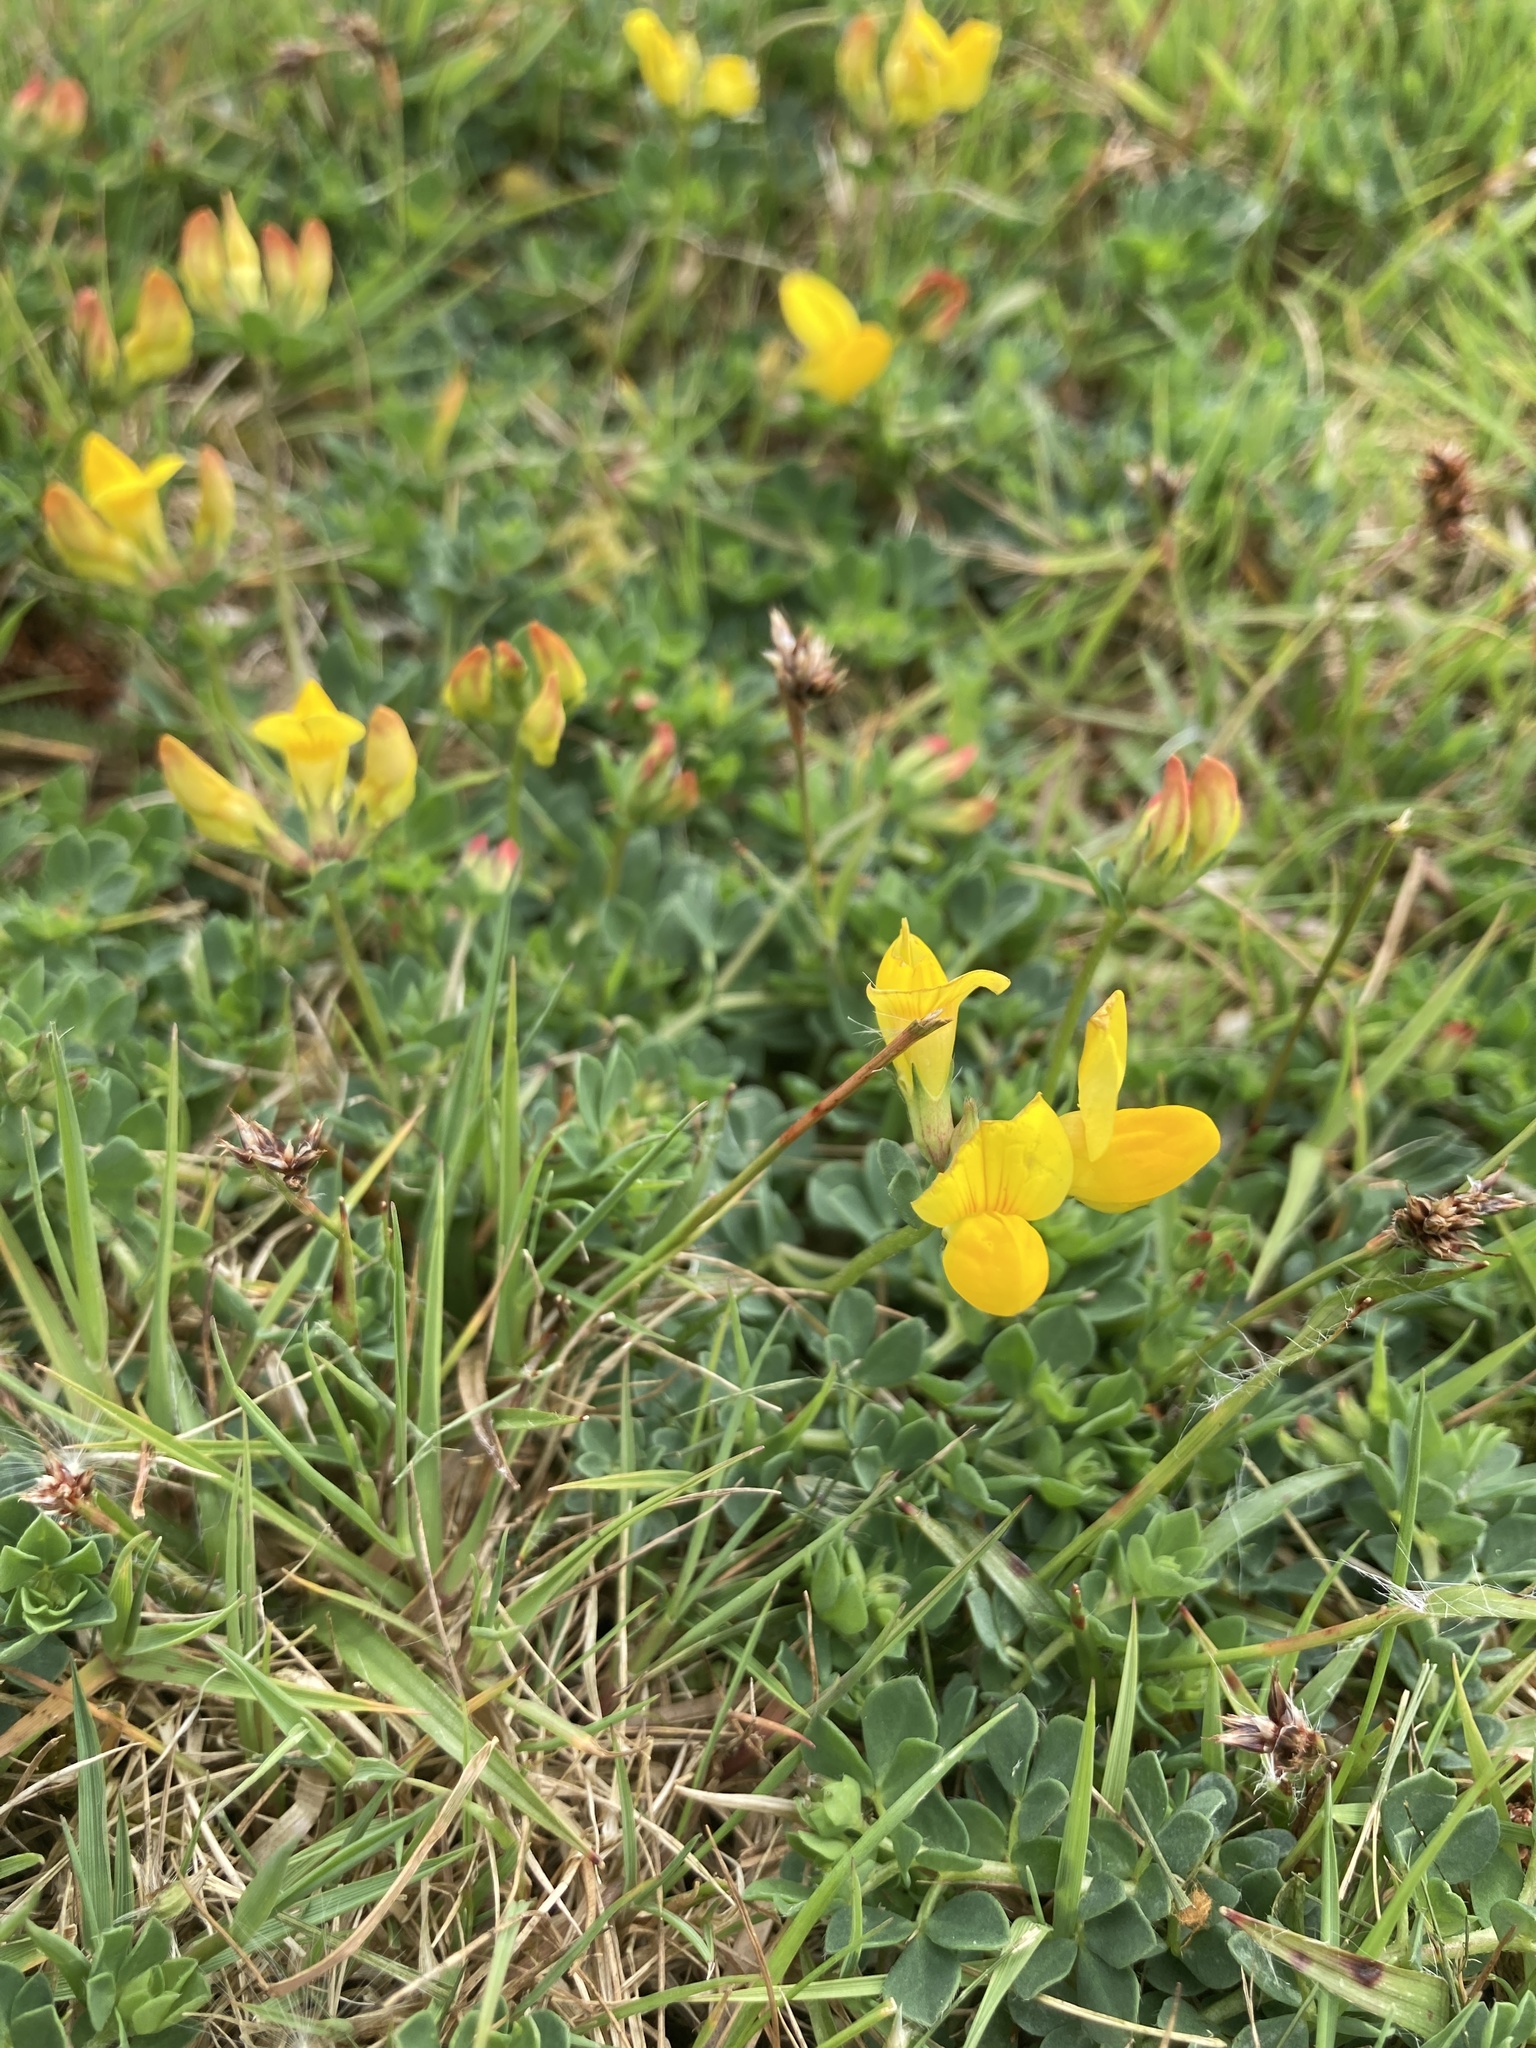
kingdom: Plantae
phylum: Tracheophyta
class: Magnoliopsida
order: Fabales
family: Fabaceae
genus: Lotus
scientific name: Lotus corniculatus
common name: Common bird's-foot-trefoil
